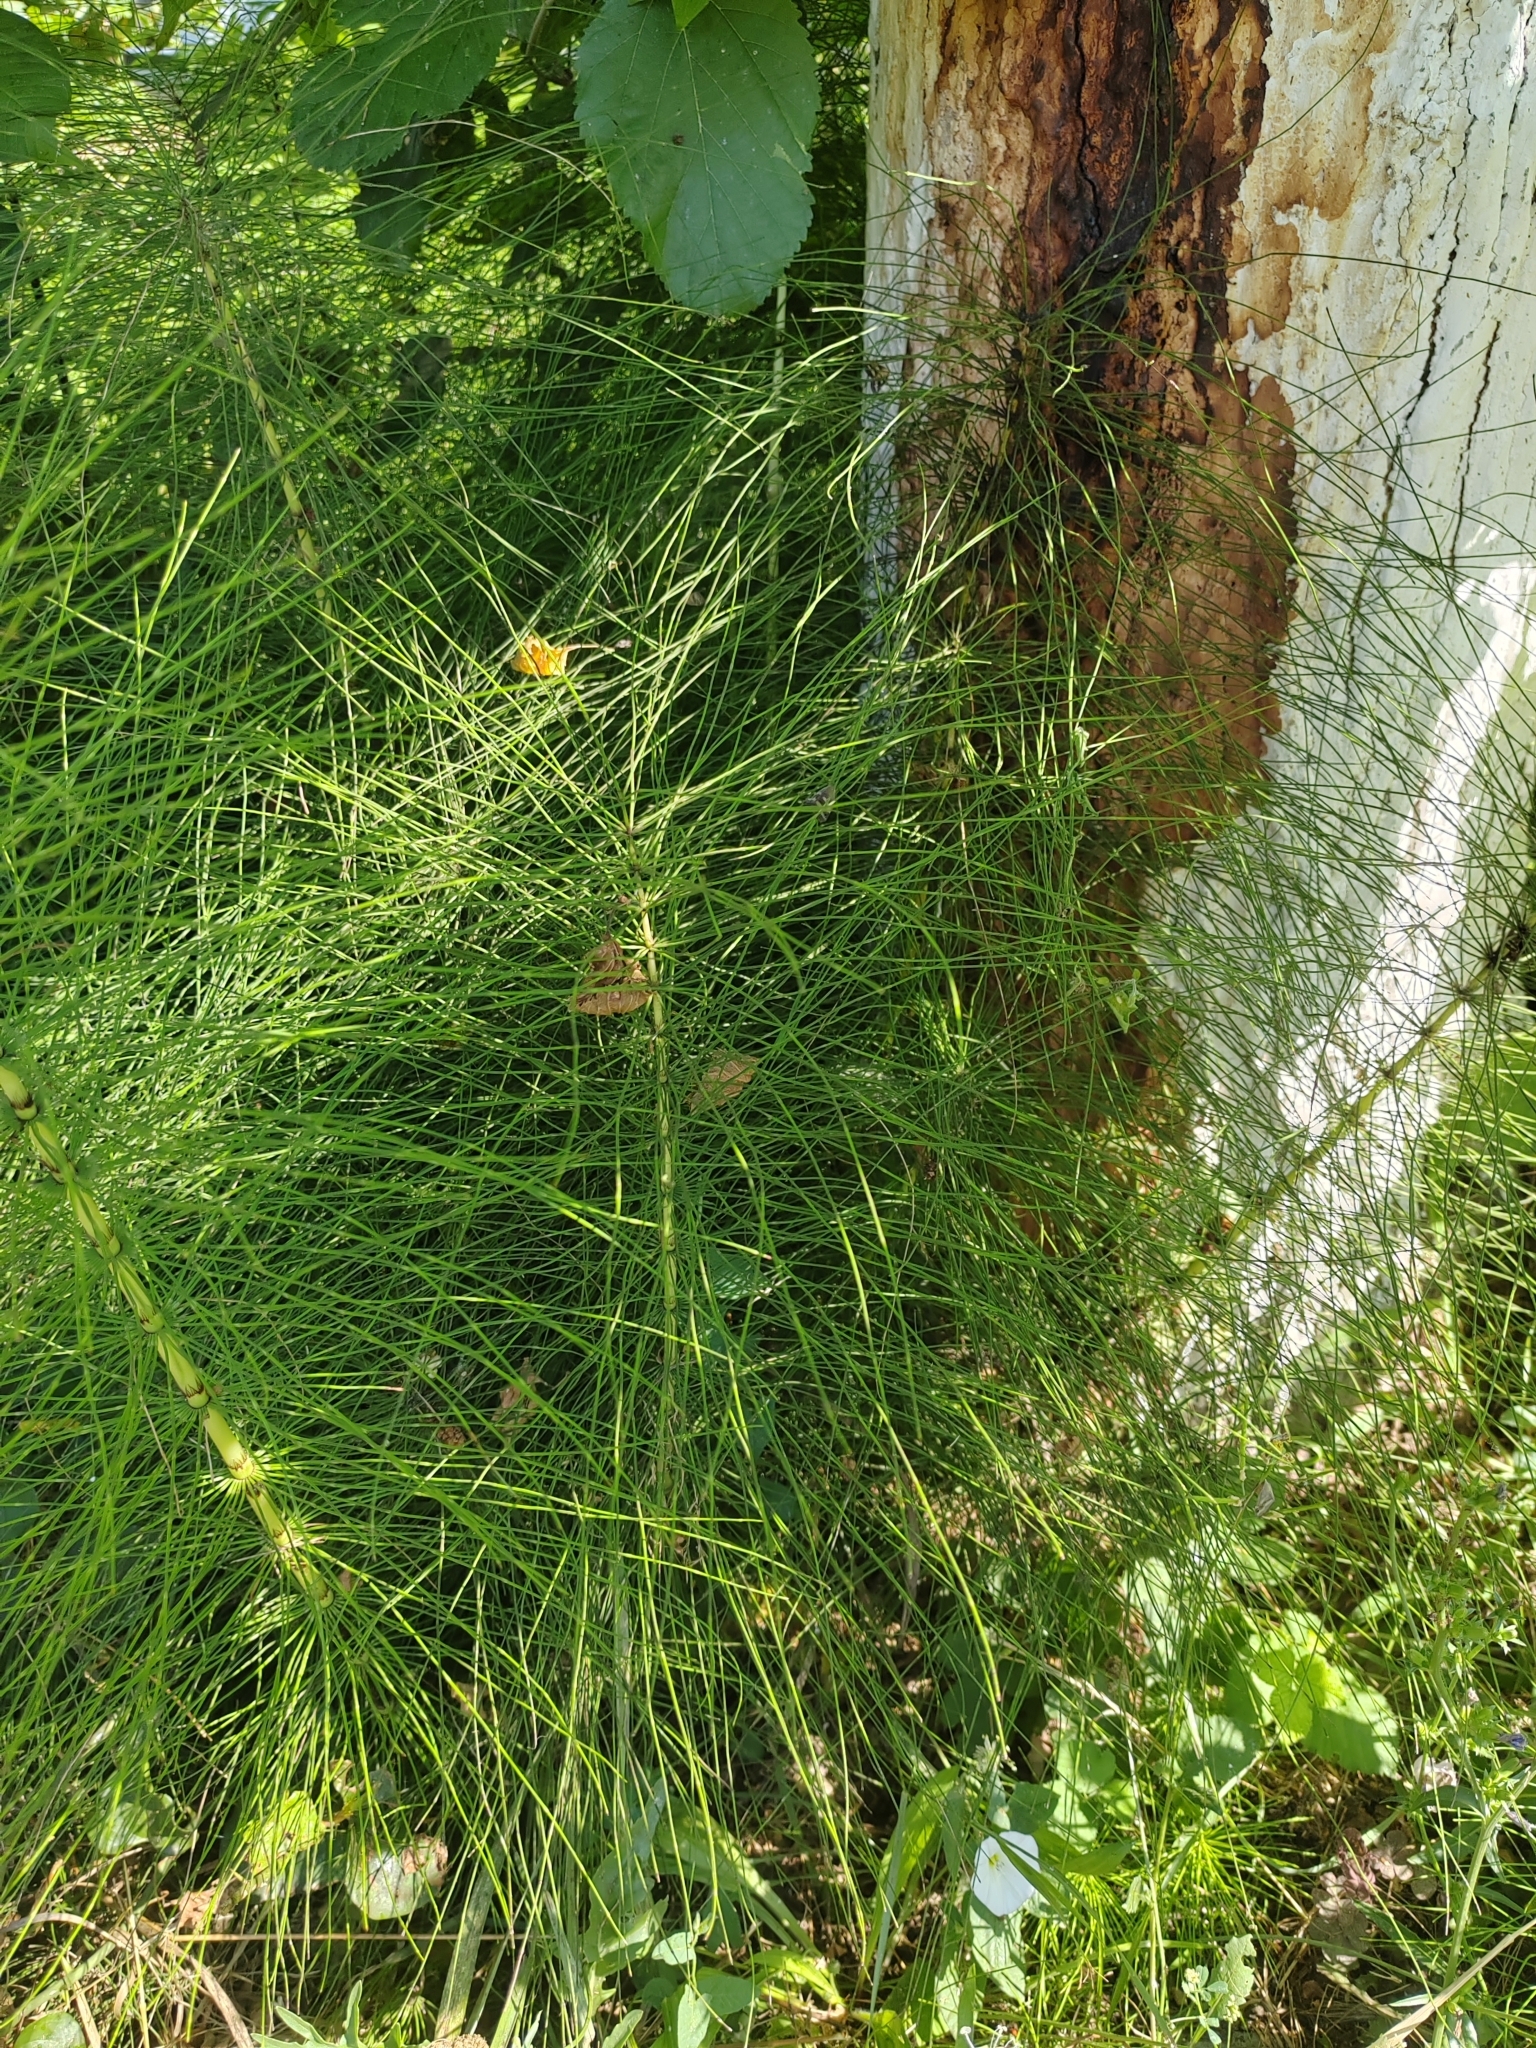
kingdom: Plantae
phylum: Tracheophyta
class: Polypodiopsida
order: Equisetales
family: Equisetaceae
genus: Equisetum
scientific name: Equisetum telmateia
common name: Great horsetail
